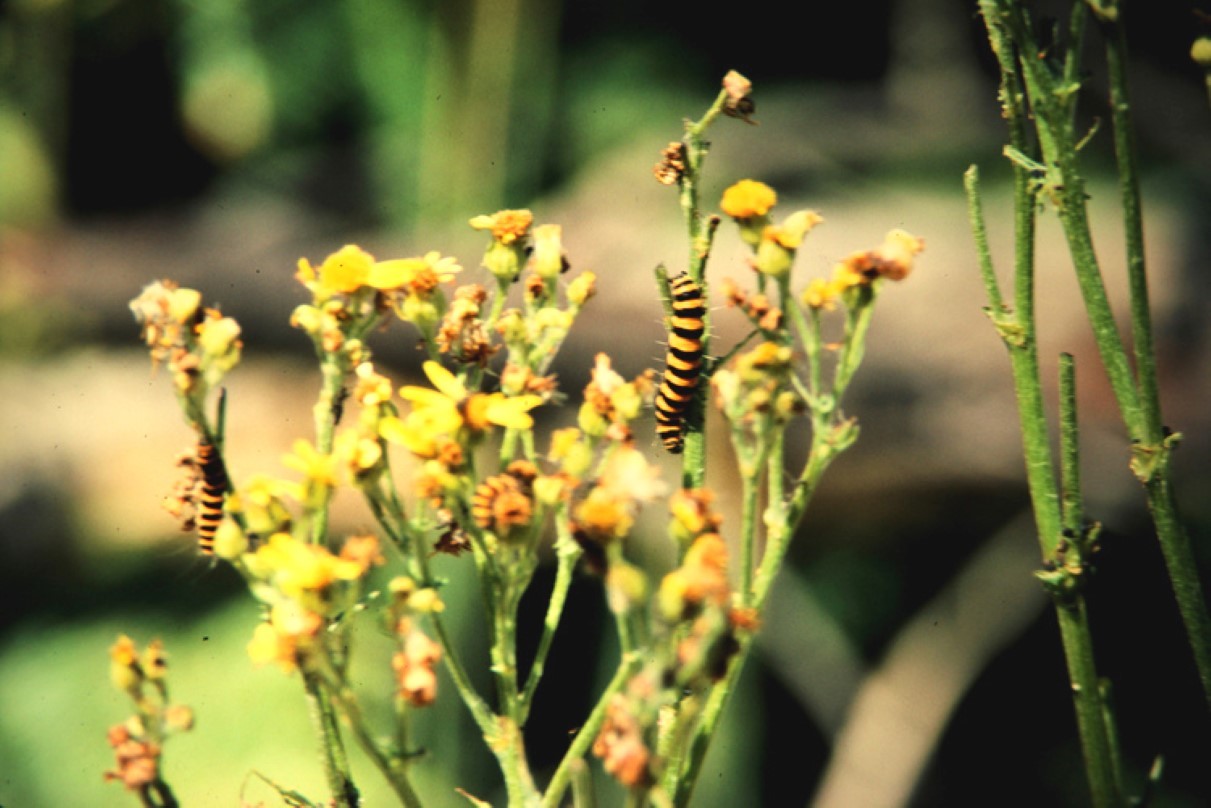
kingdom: Animalia
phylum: Arthropoda
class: Insecta
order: Lepidoptera
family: Erebidae
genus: Tyria
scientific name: Tyria jacobaeae
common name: Cinnabar
